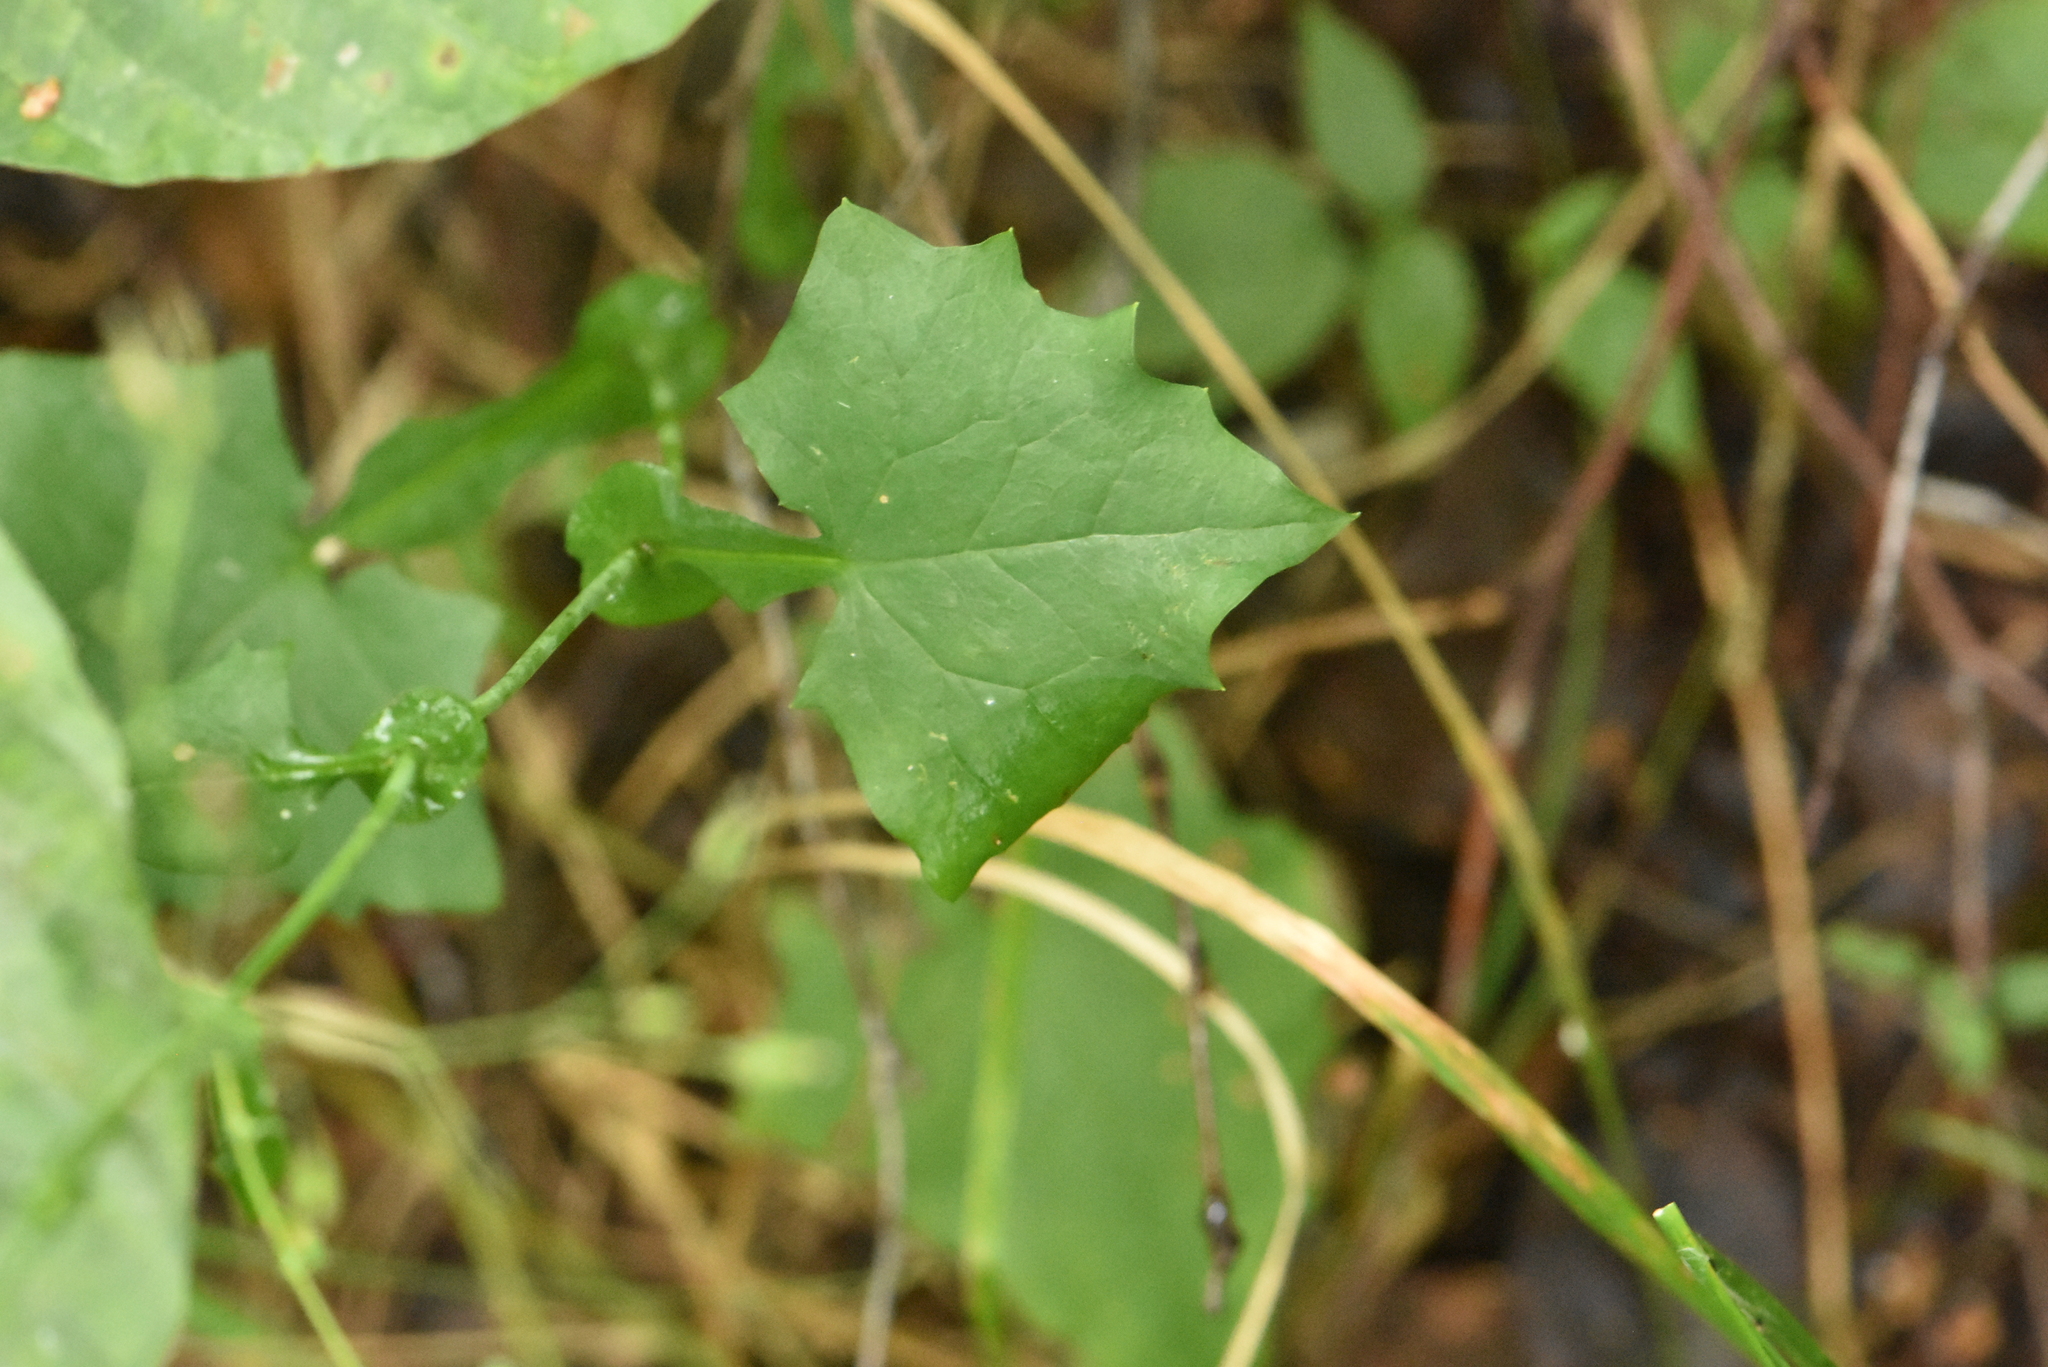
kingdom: Plantae
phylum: Tracheophyta
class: Magnoliopsida
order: Asterales
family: Asteraceae
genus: Mycelis
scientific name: Mycelis muralis
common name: Wall lettuce
